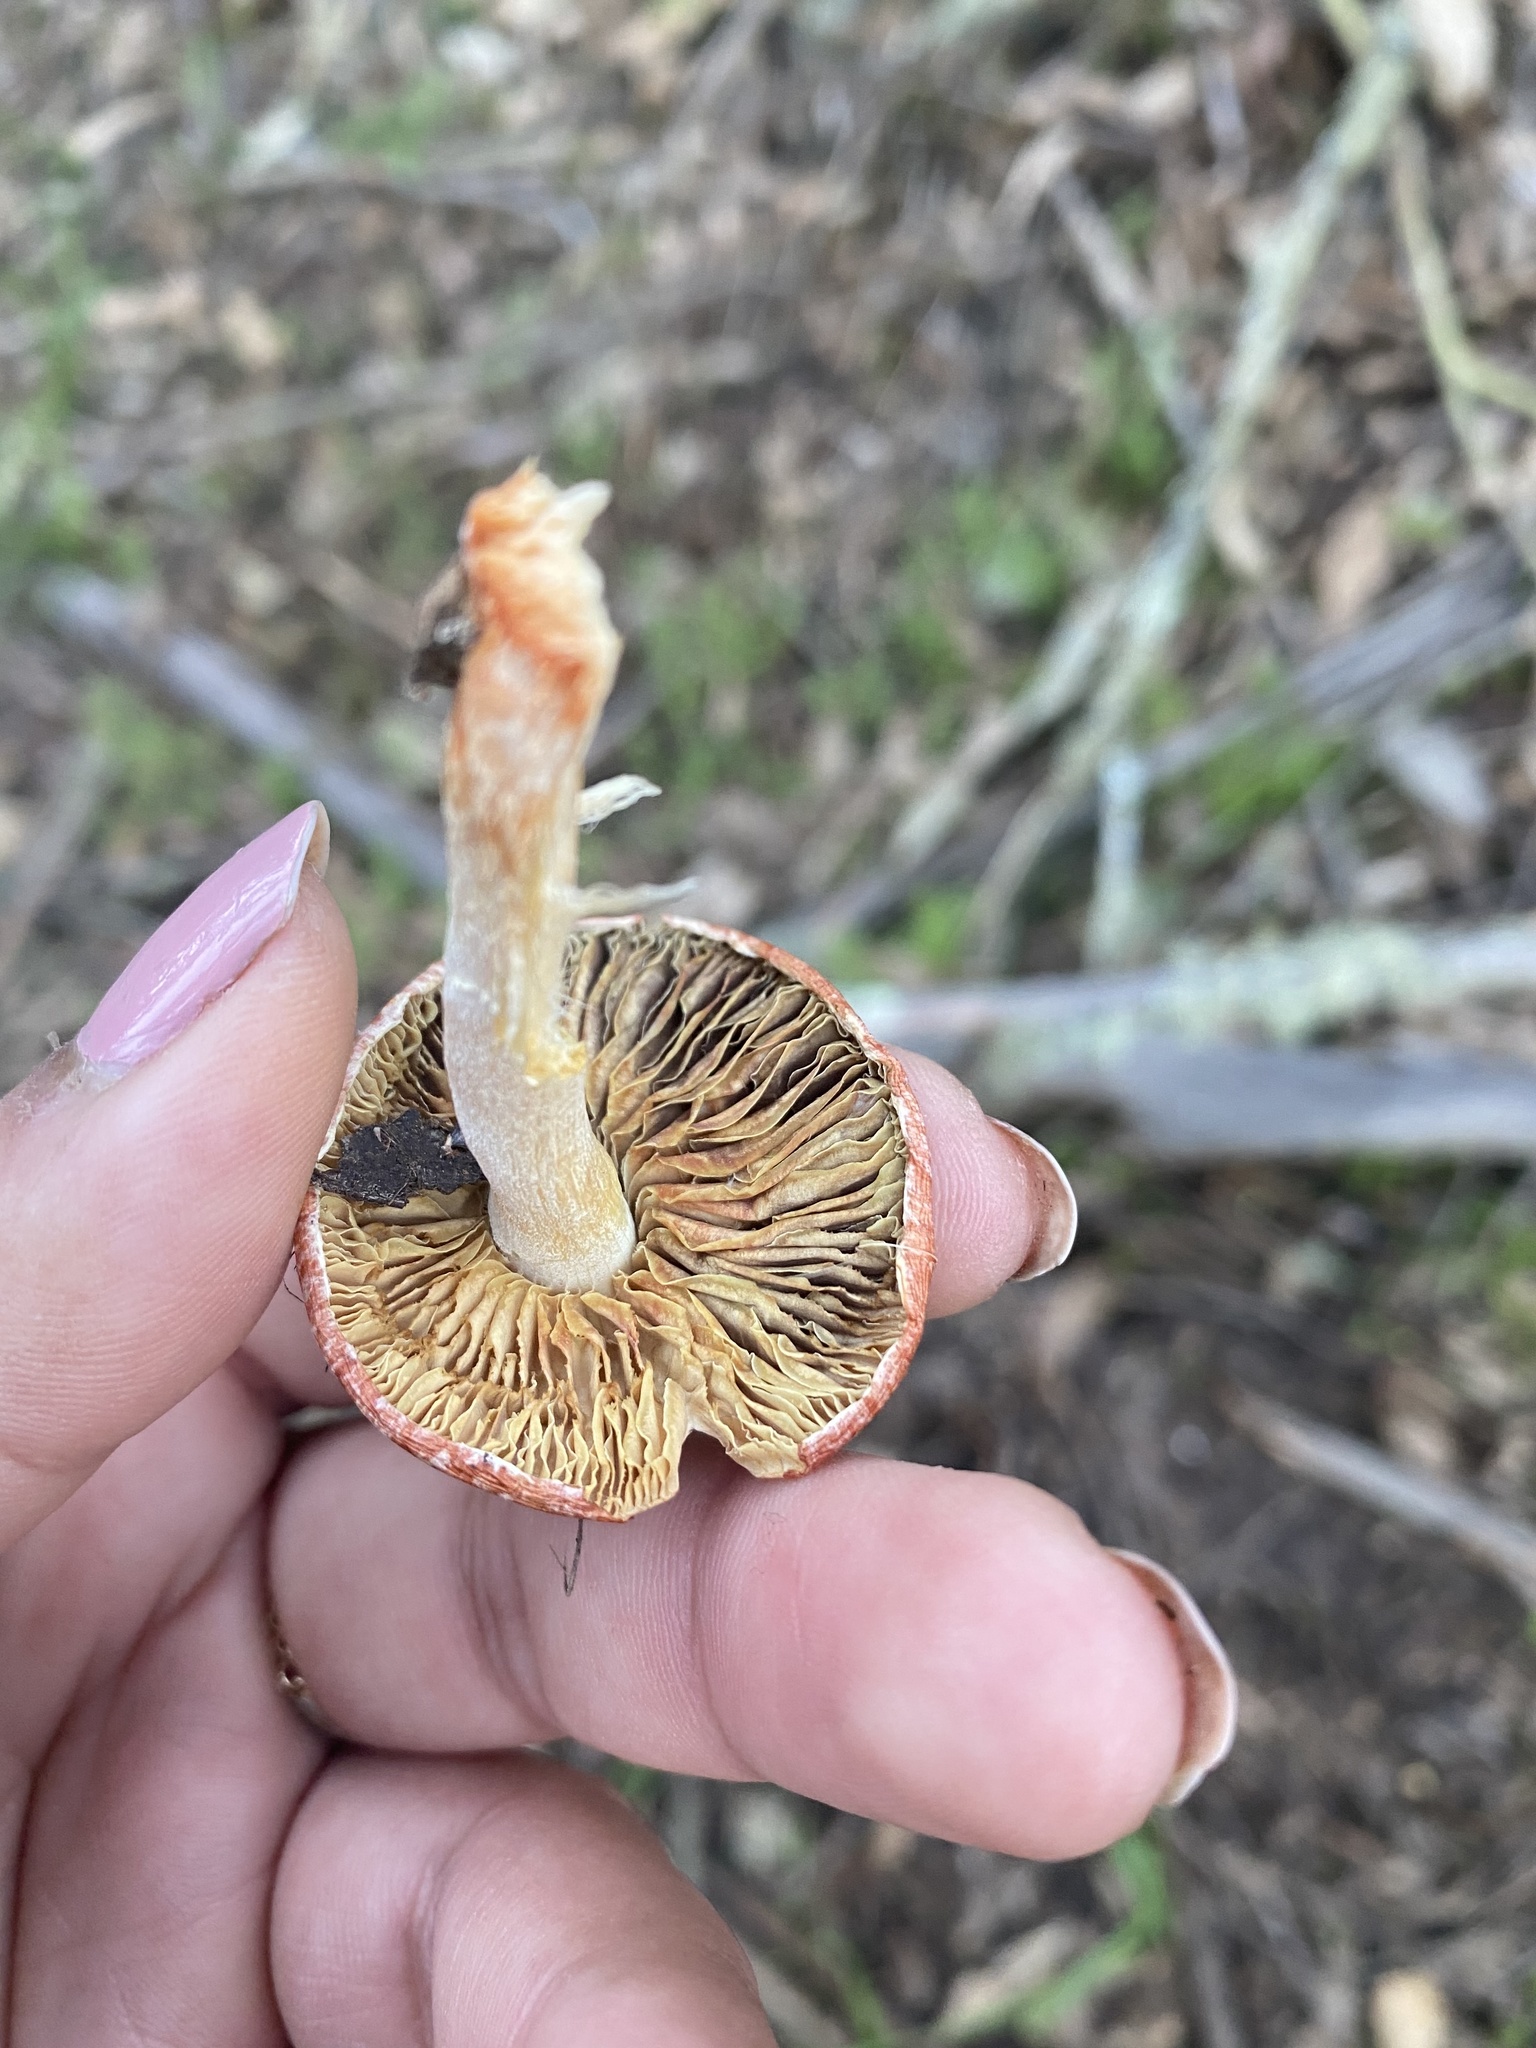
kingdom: Fungi
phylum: Basidiomycota
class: Agaricomycetes
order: Agaricales
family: Strophariaceae
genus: Leratiomyces
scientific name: Leratiomyces ceres
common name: Redlead roundhead
